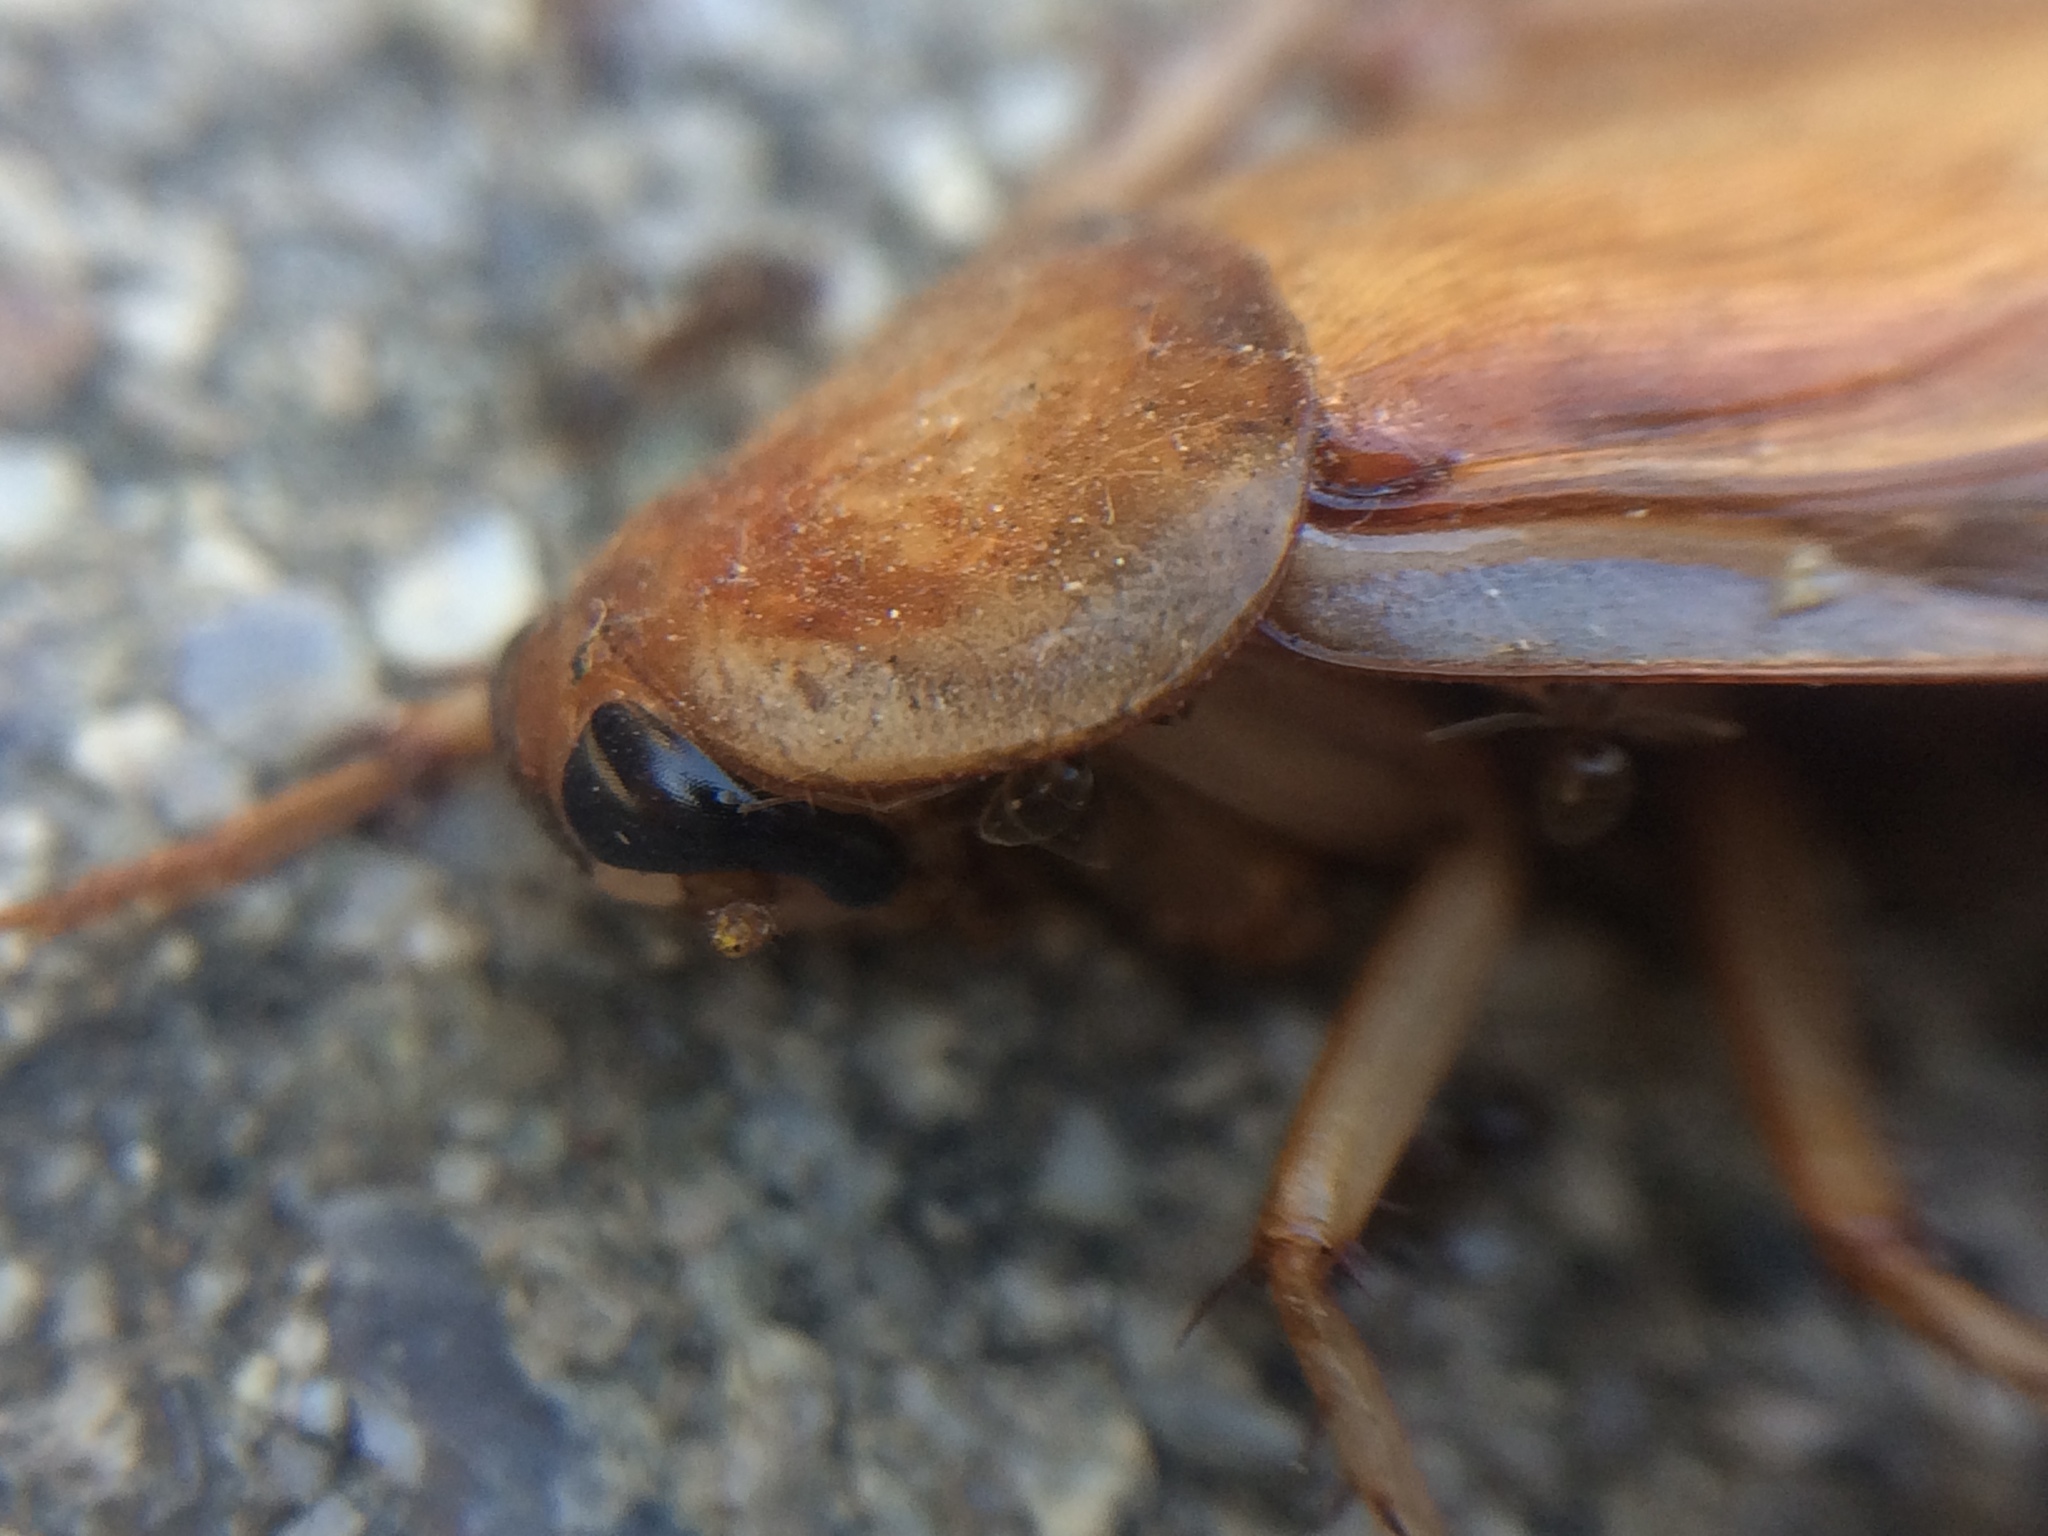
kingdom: Animalia
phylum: Arthropoda
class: Insecta
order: Blattodea
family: Blattidae
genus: Periplaneta
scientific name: Periplaneta lateralis
